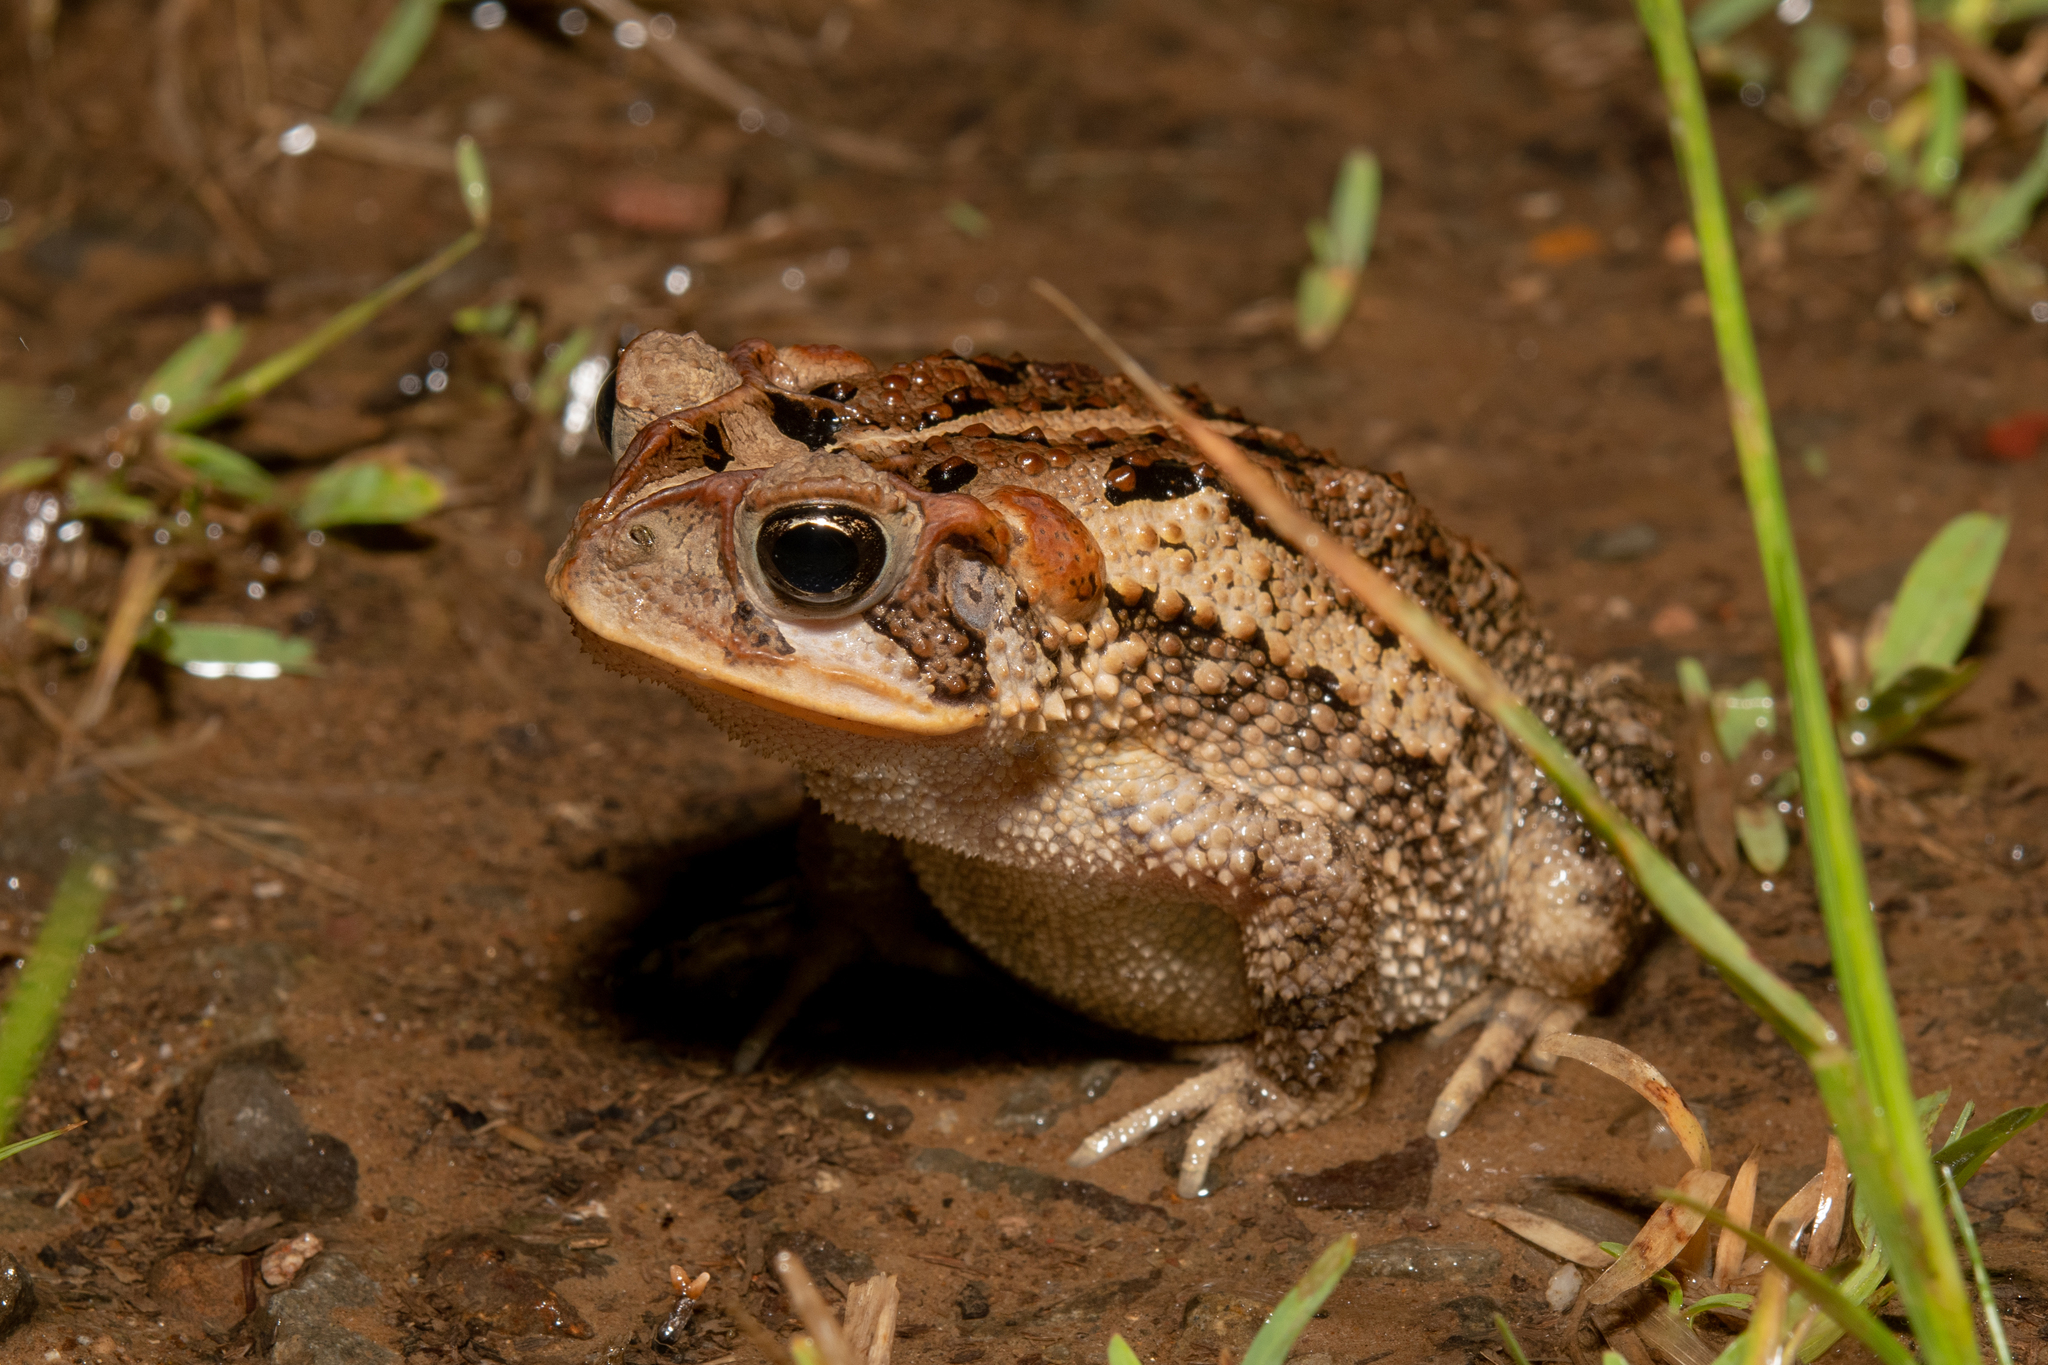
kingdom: Animalia
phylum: Chordata
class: Amphibia
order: Anura
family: Bufonidae
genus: Incilius
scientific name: Incilius porteri
